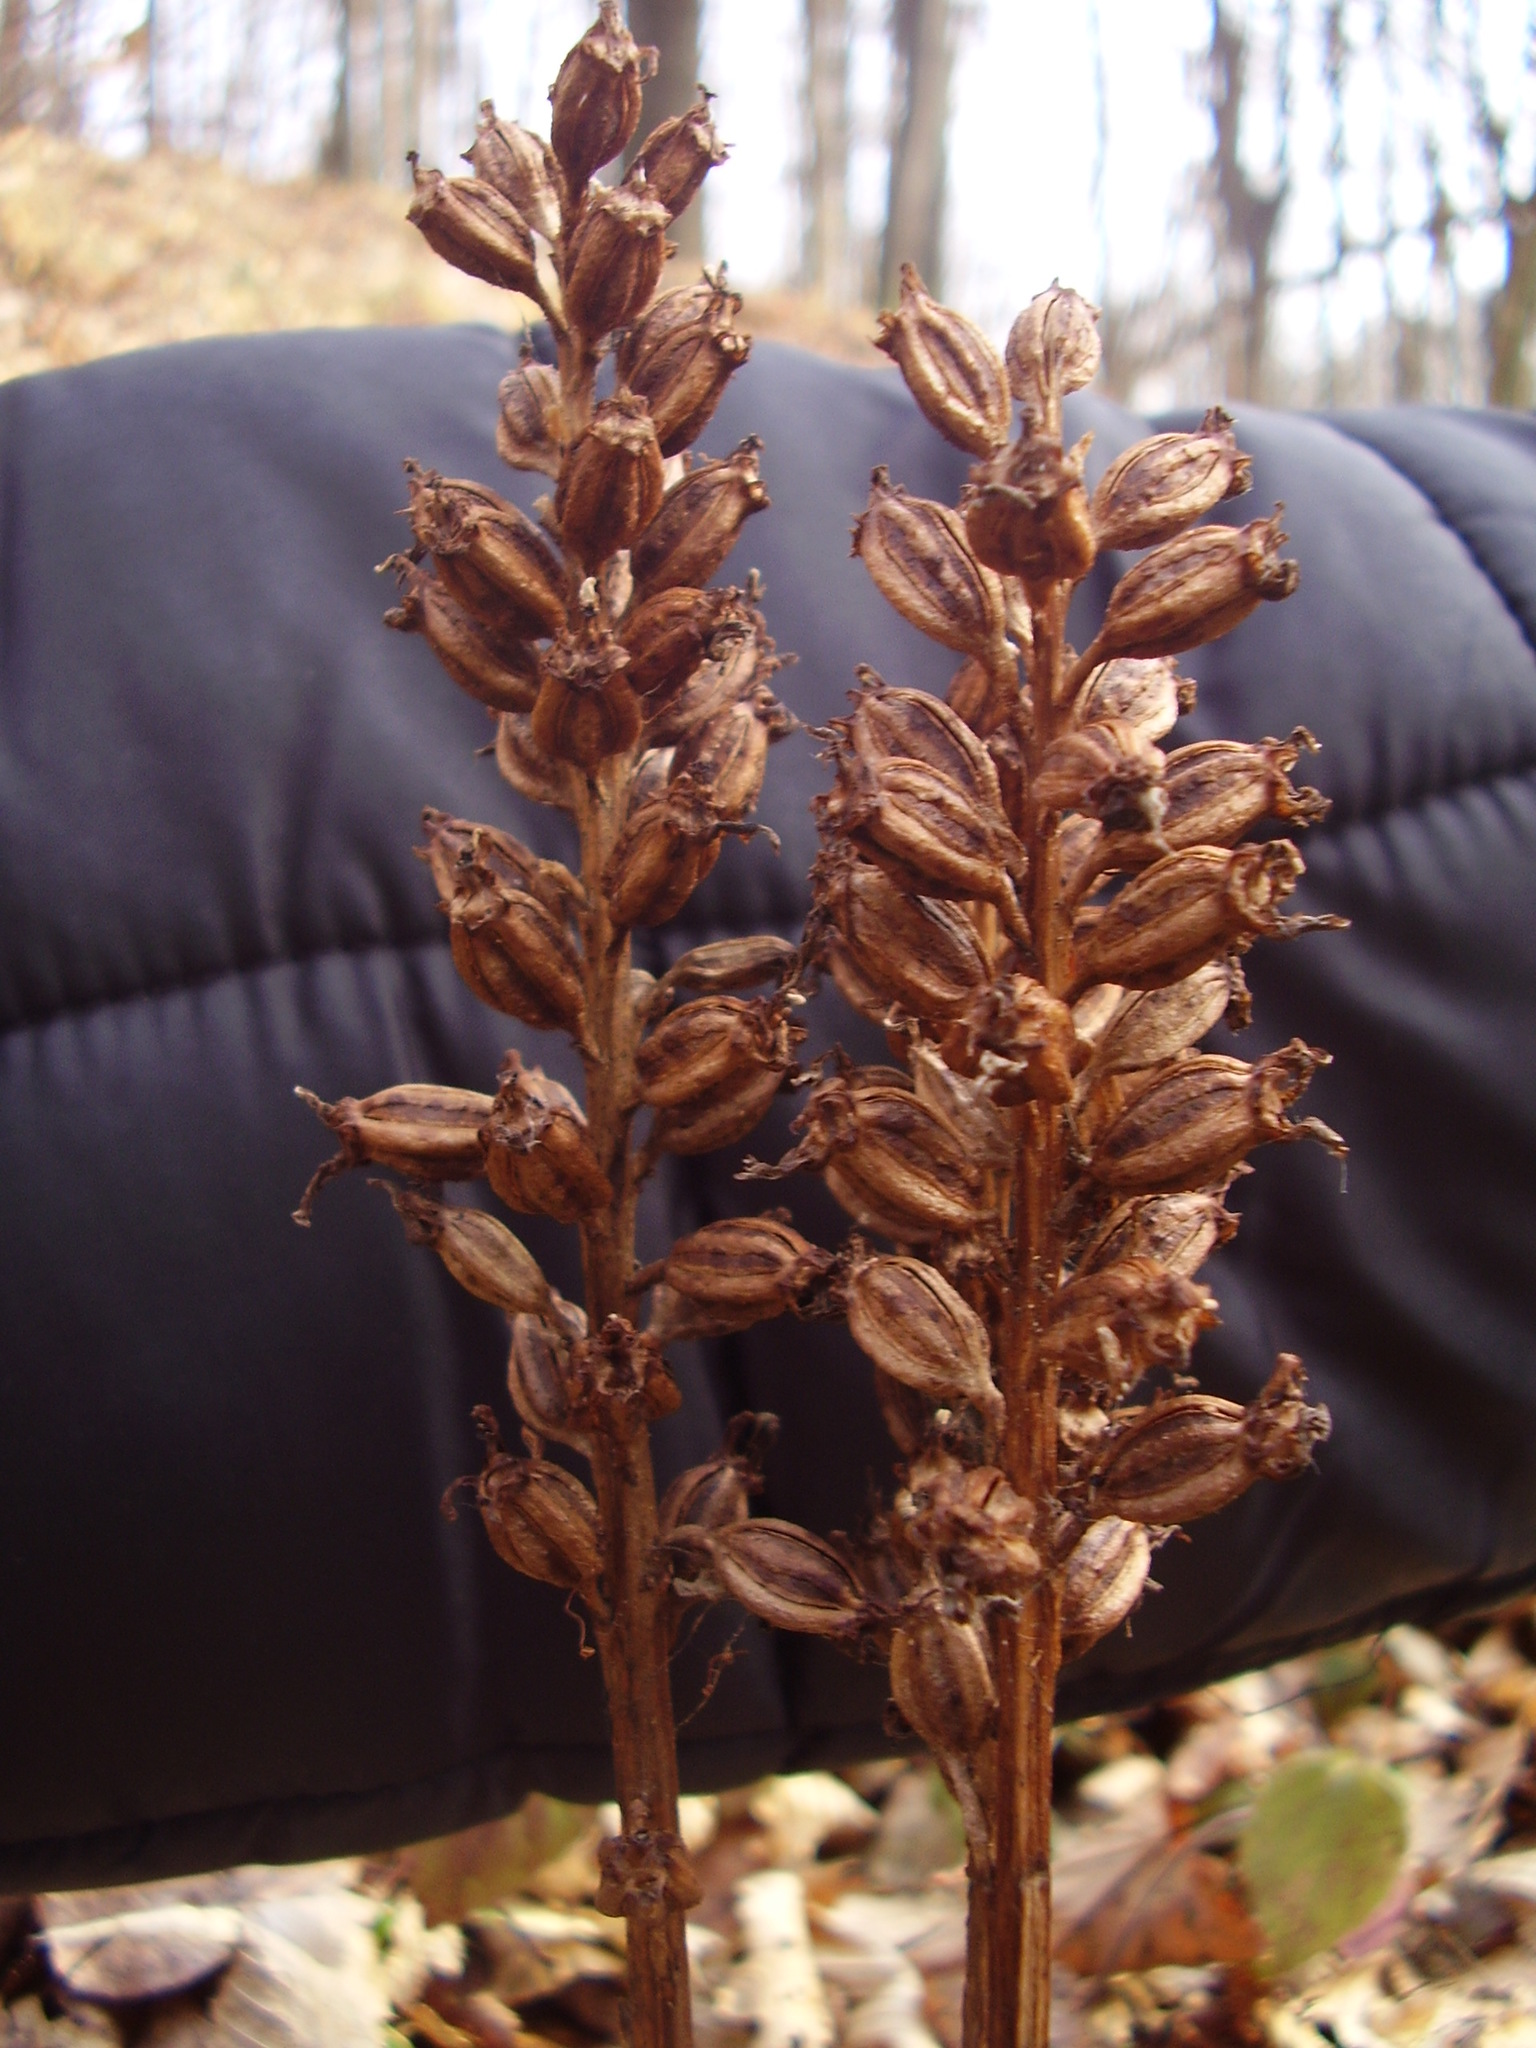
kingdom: Plantae
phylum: Tracheophyta
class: Liliopsida
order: Asparagales
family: Orchidaceae
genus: Neottia
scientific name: Neottia nidus-avis
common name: Bird's-nest orchid
